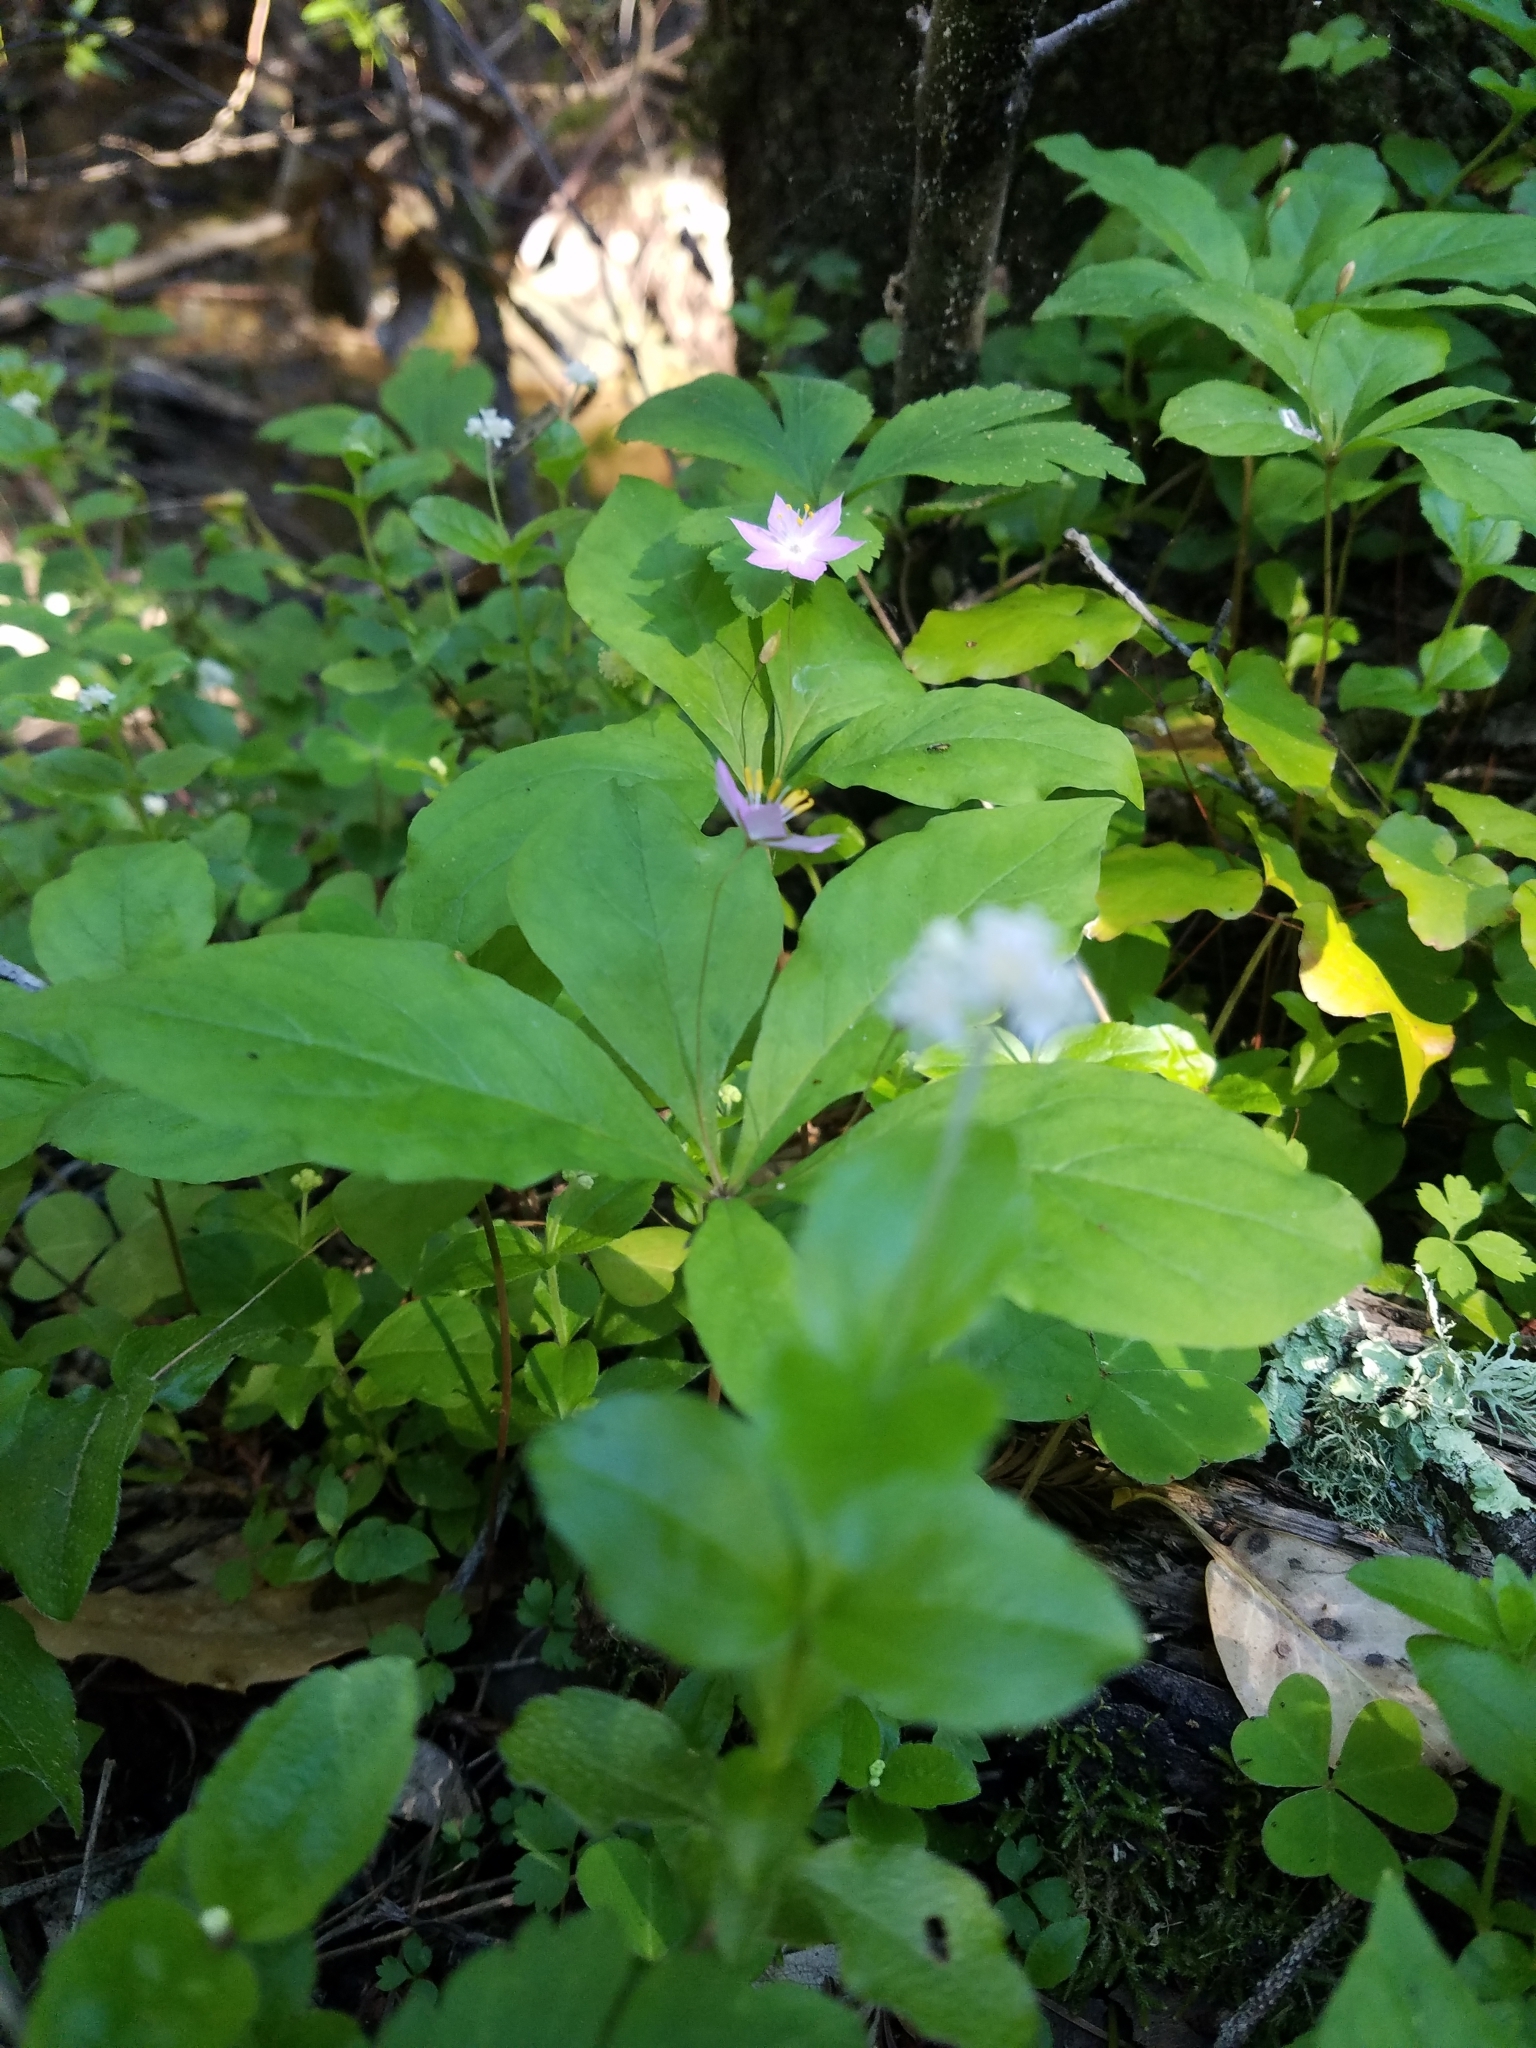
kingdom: Plantae
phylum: Tracheophyta
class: Magnoliopsida
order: Cornales
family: Hydrangeaceae
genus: Whipplea
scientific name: Whipplea modesta
